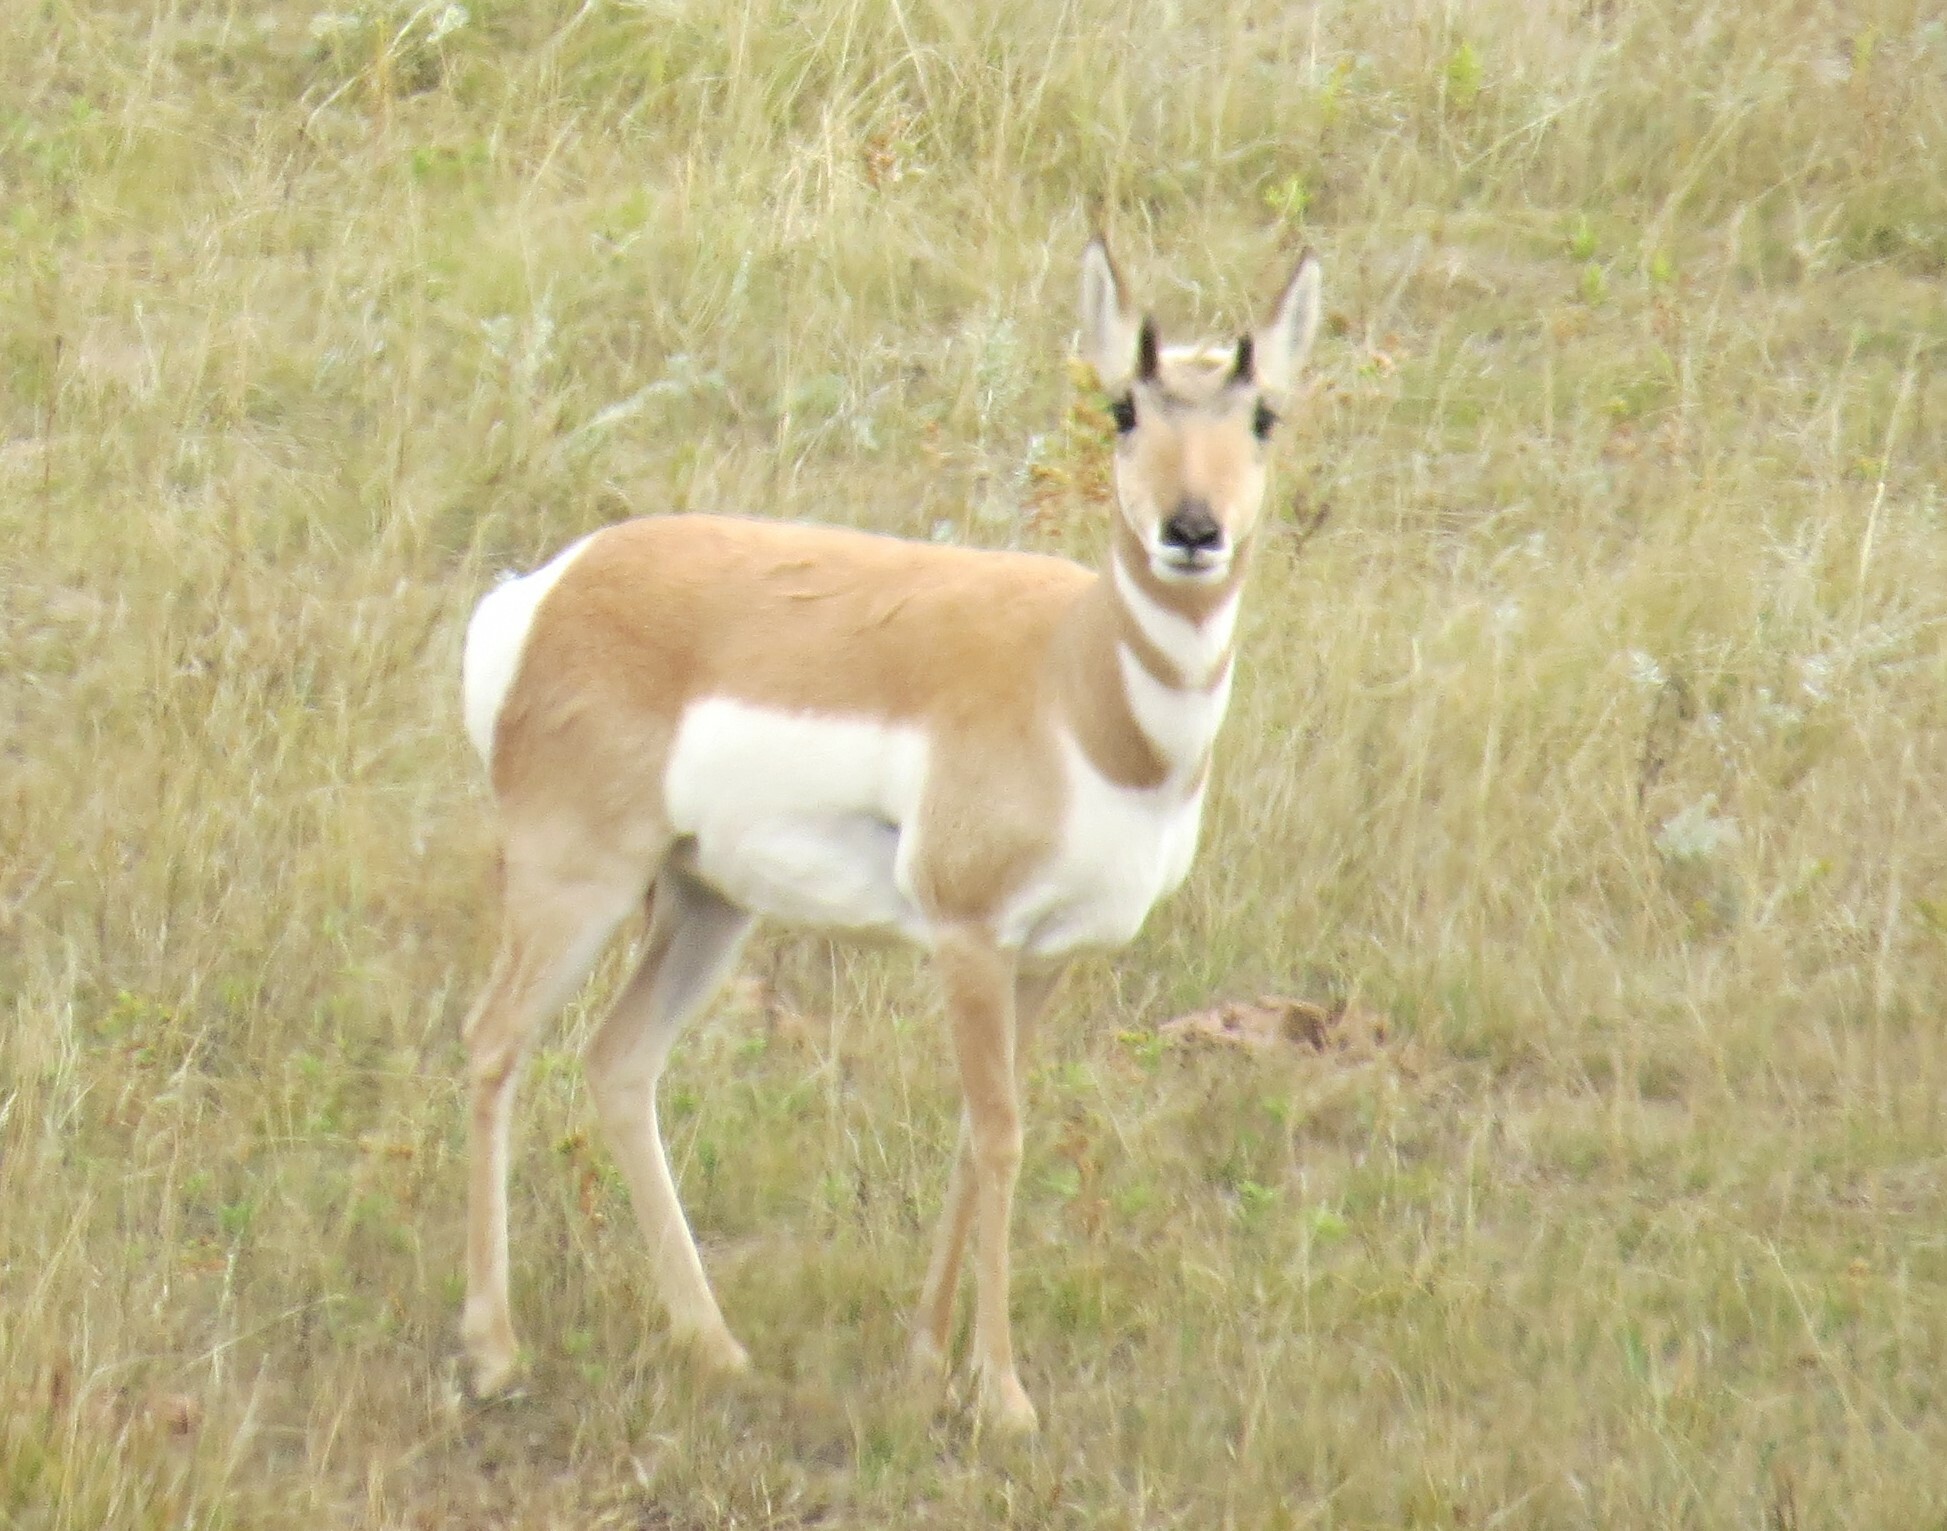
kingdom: Animalia
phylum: Chordata
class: Mammalia
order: Artiodactyla
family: Antilocapridae
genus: Antilocapra
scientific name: Antilocapra americana
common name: Pronghorn
